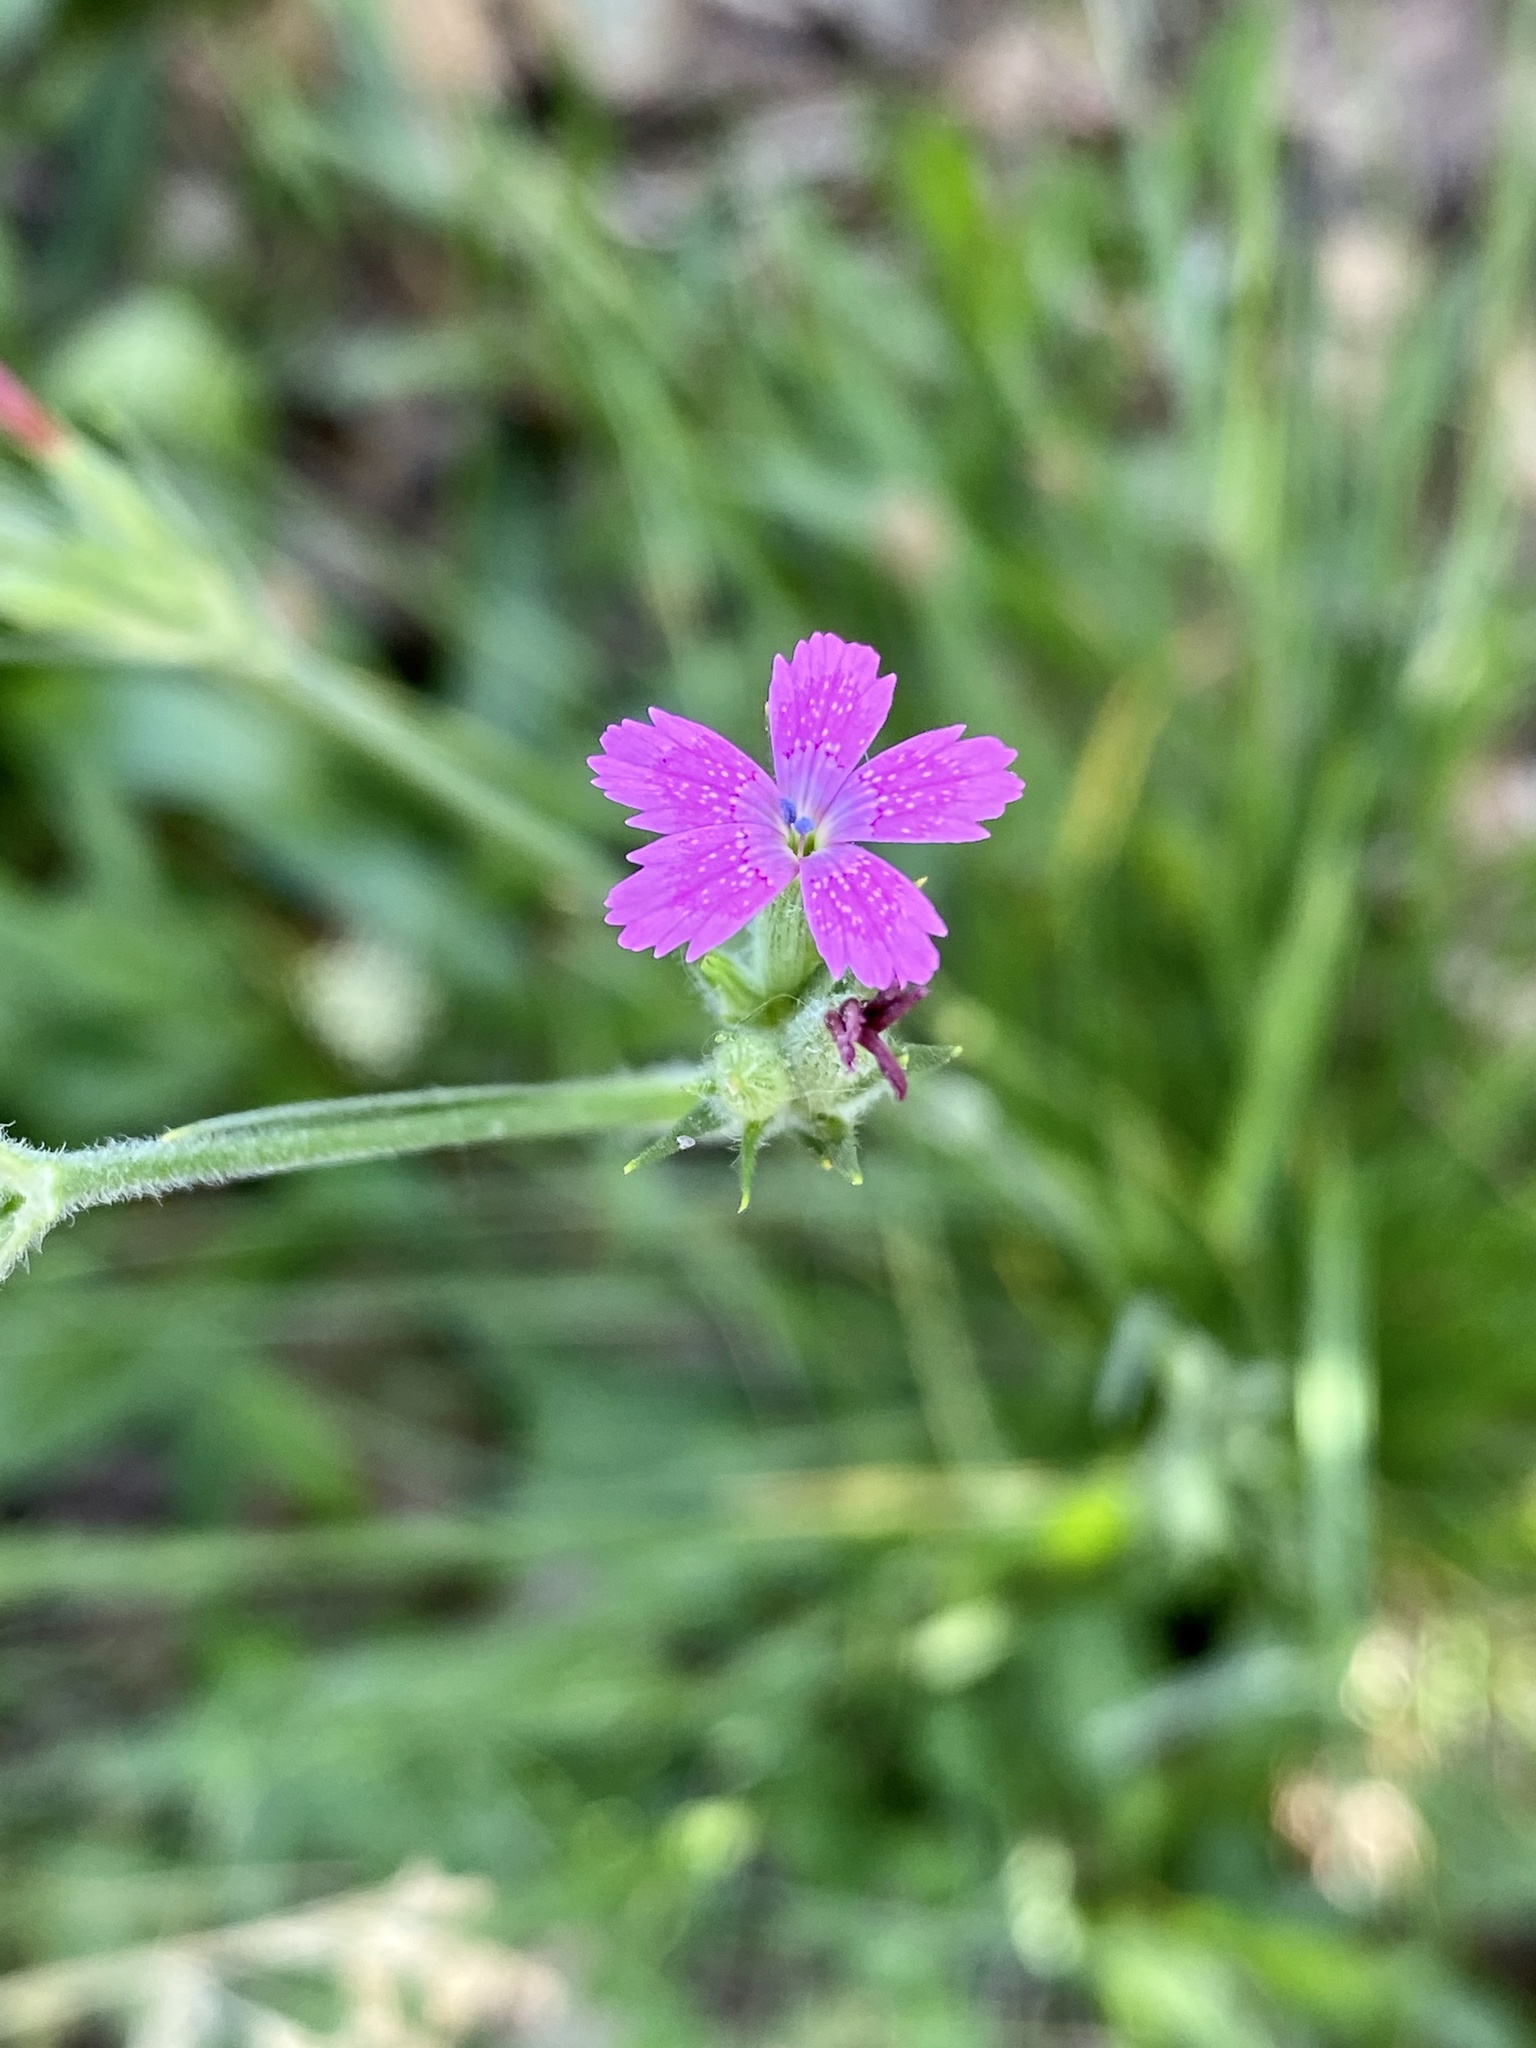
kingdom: Plantae
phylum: Tracheophyta
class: Magnoliopsida
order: Caryophyllales
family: Caryophyllaceae
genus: Dianthus
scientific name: Dianthus armeria
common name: Deptford pink
